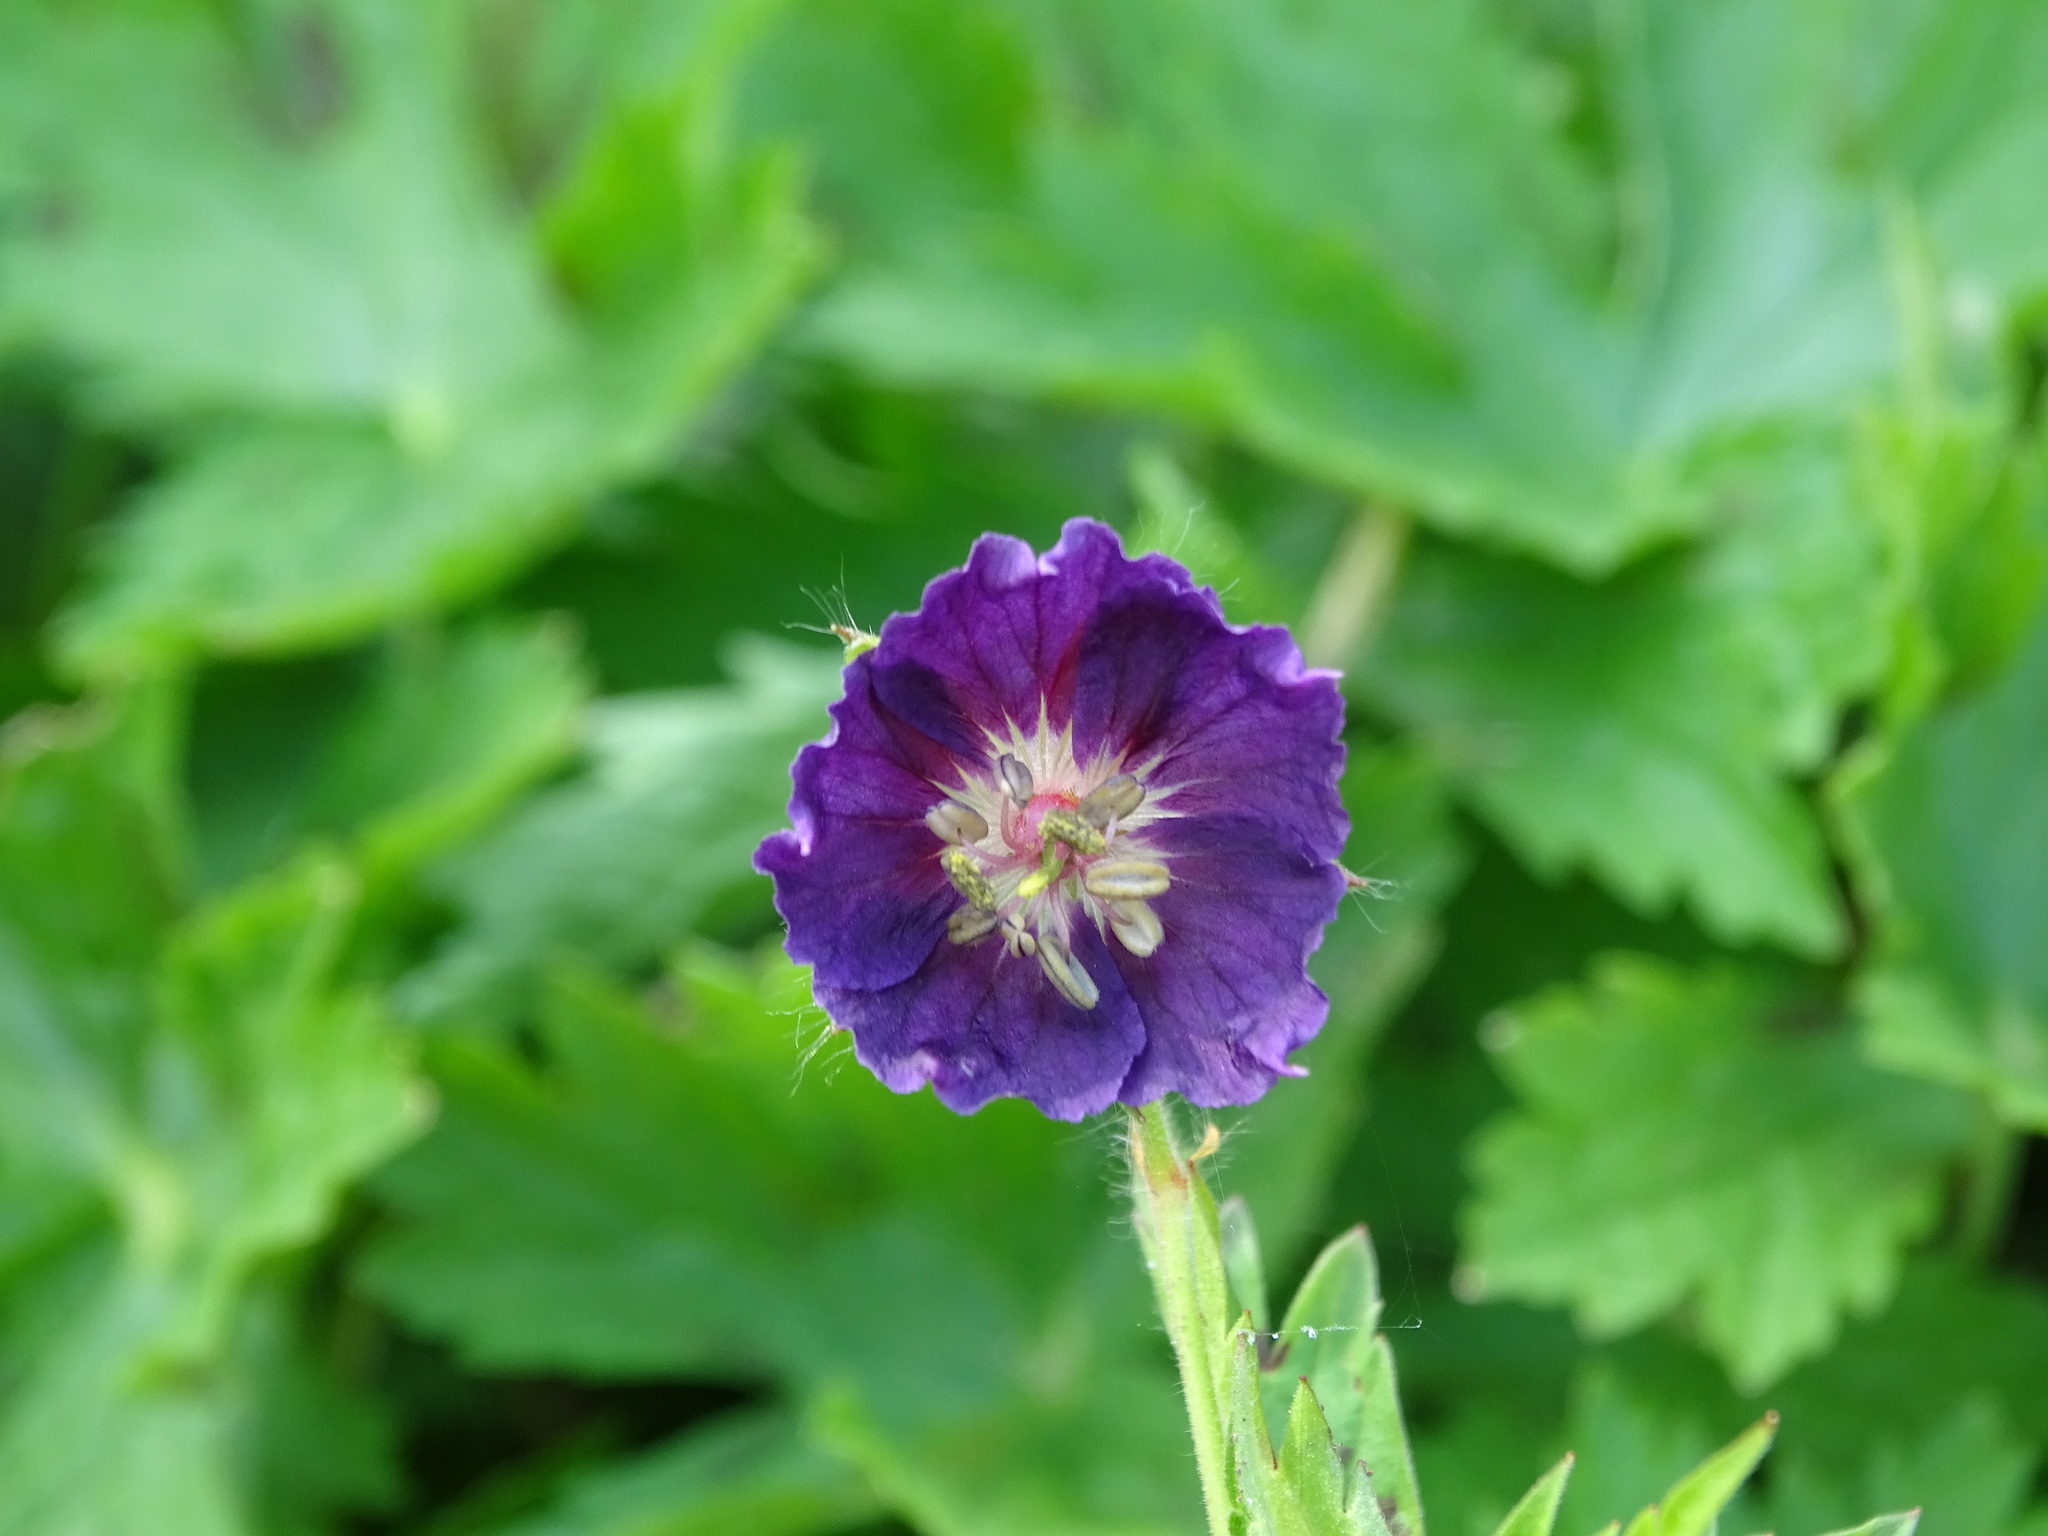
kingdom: Plantae
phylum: Tracheophyta
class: Magnoliopsida
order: Geraniales
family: Geraniaceae
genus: Geranium
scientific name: Geranium phaeum
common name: Dusky crane's-bill
